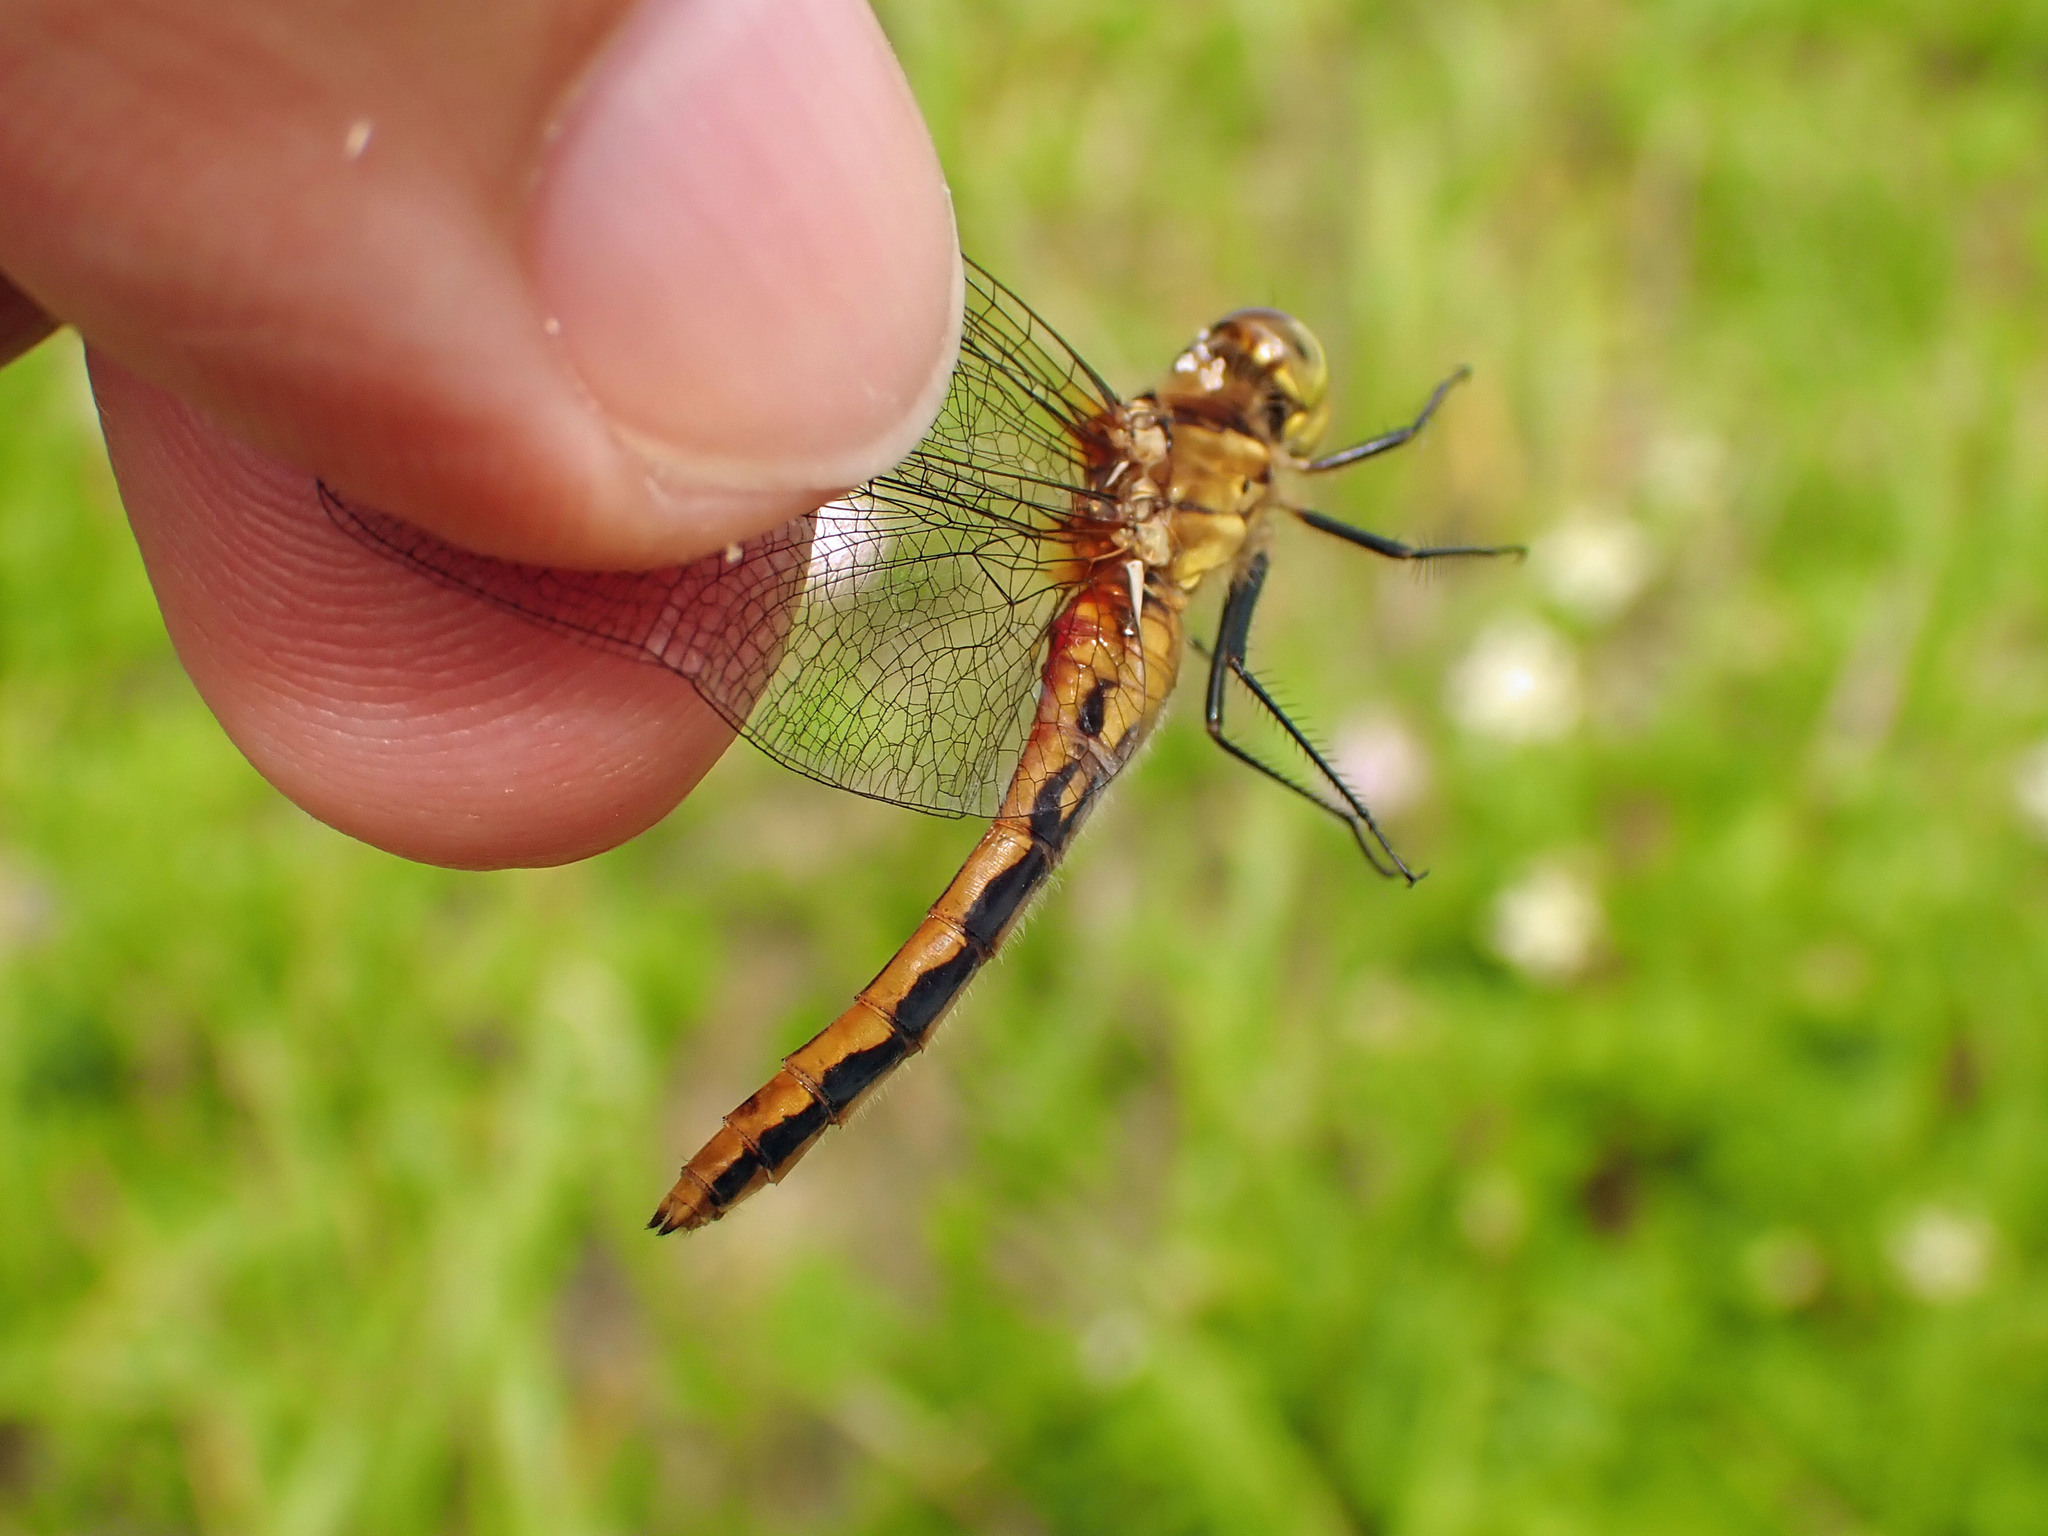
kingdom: Animalia
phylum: Arthropoda
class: Insecta
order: Odonata
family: Libellulidae
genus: Sympetrum
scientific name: Sympetrum internum
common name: Cherry-faced meadowhawk
